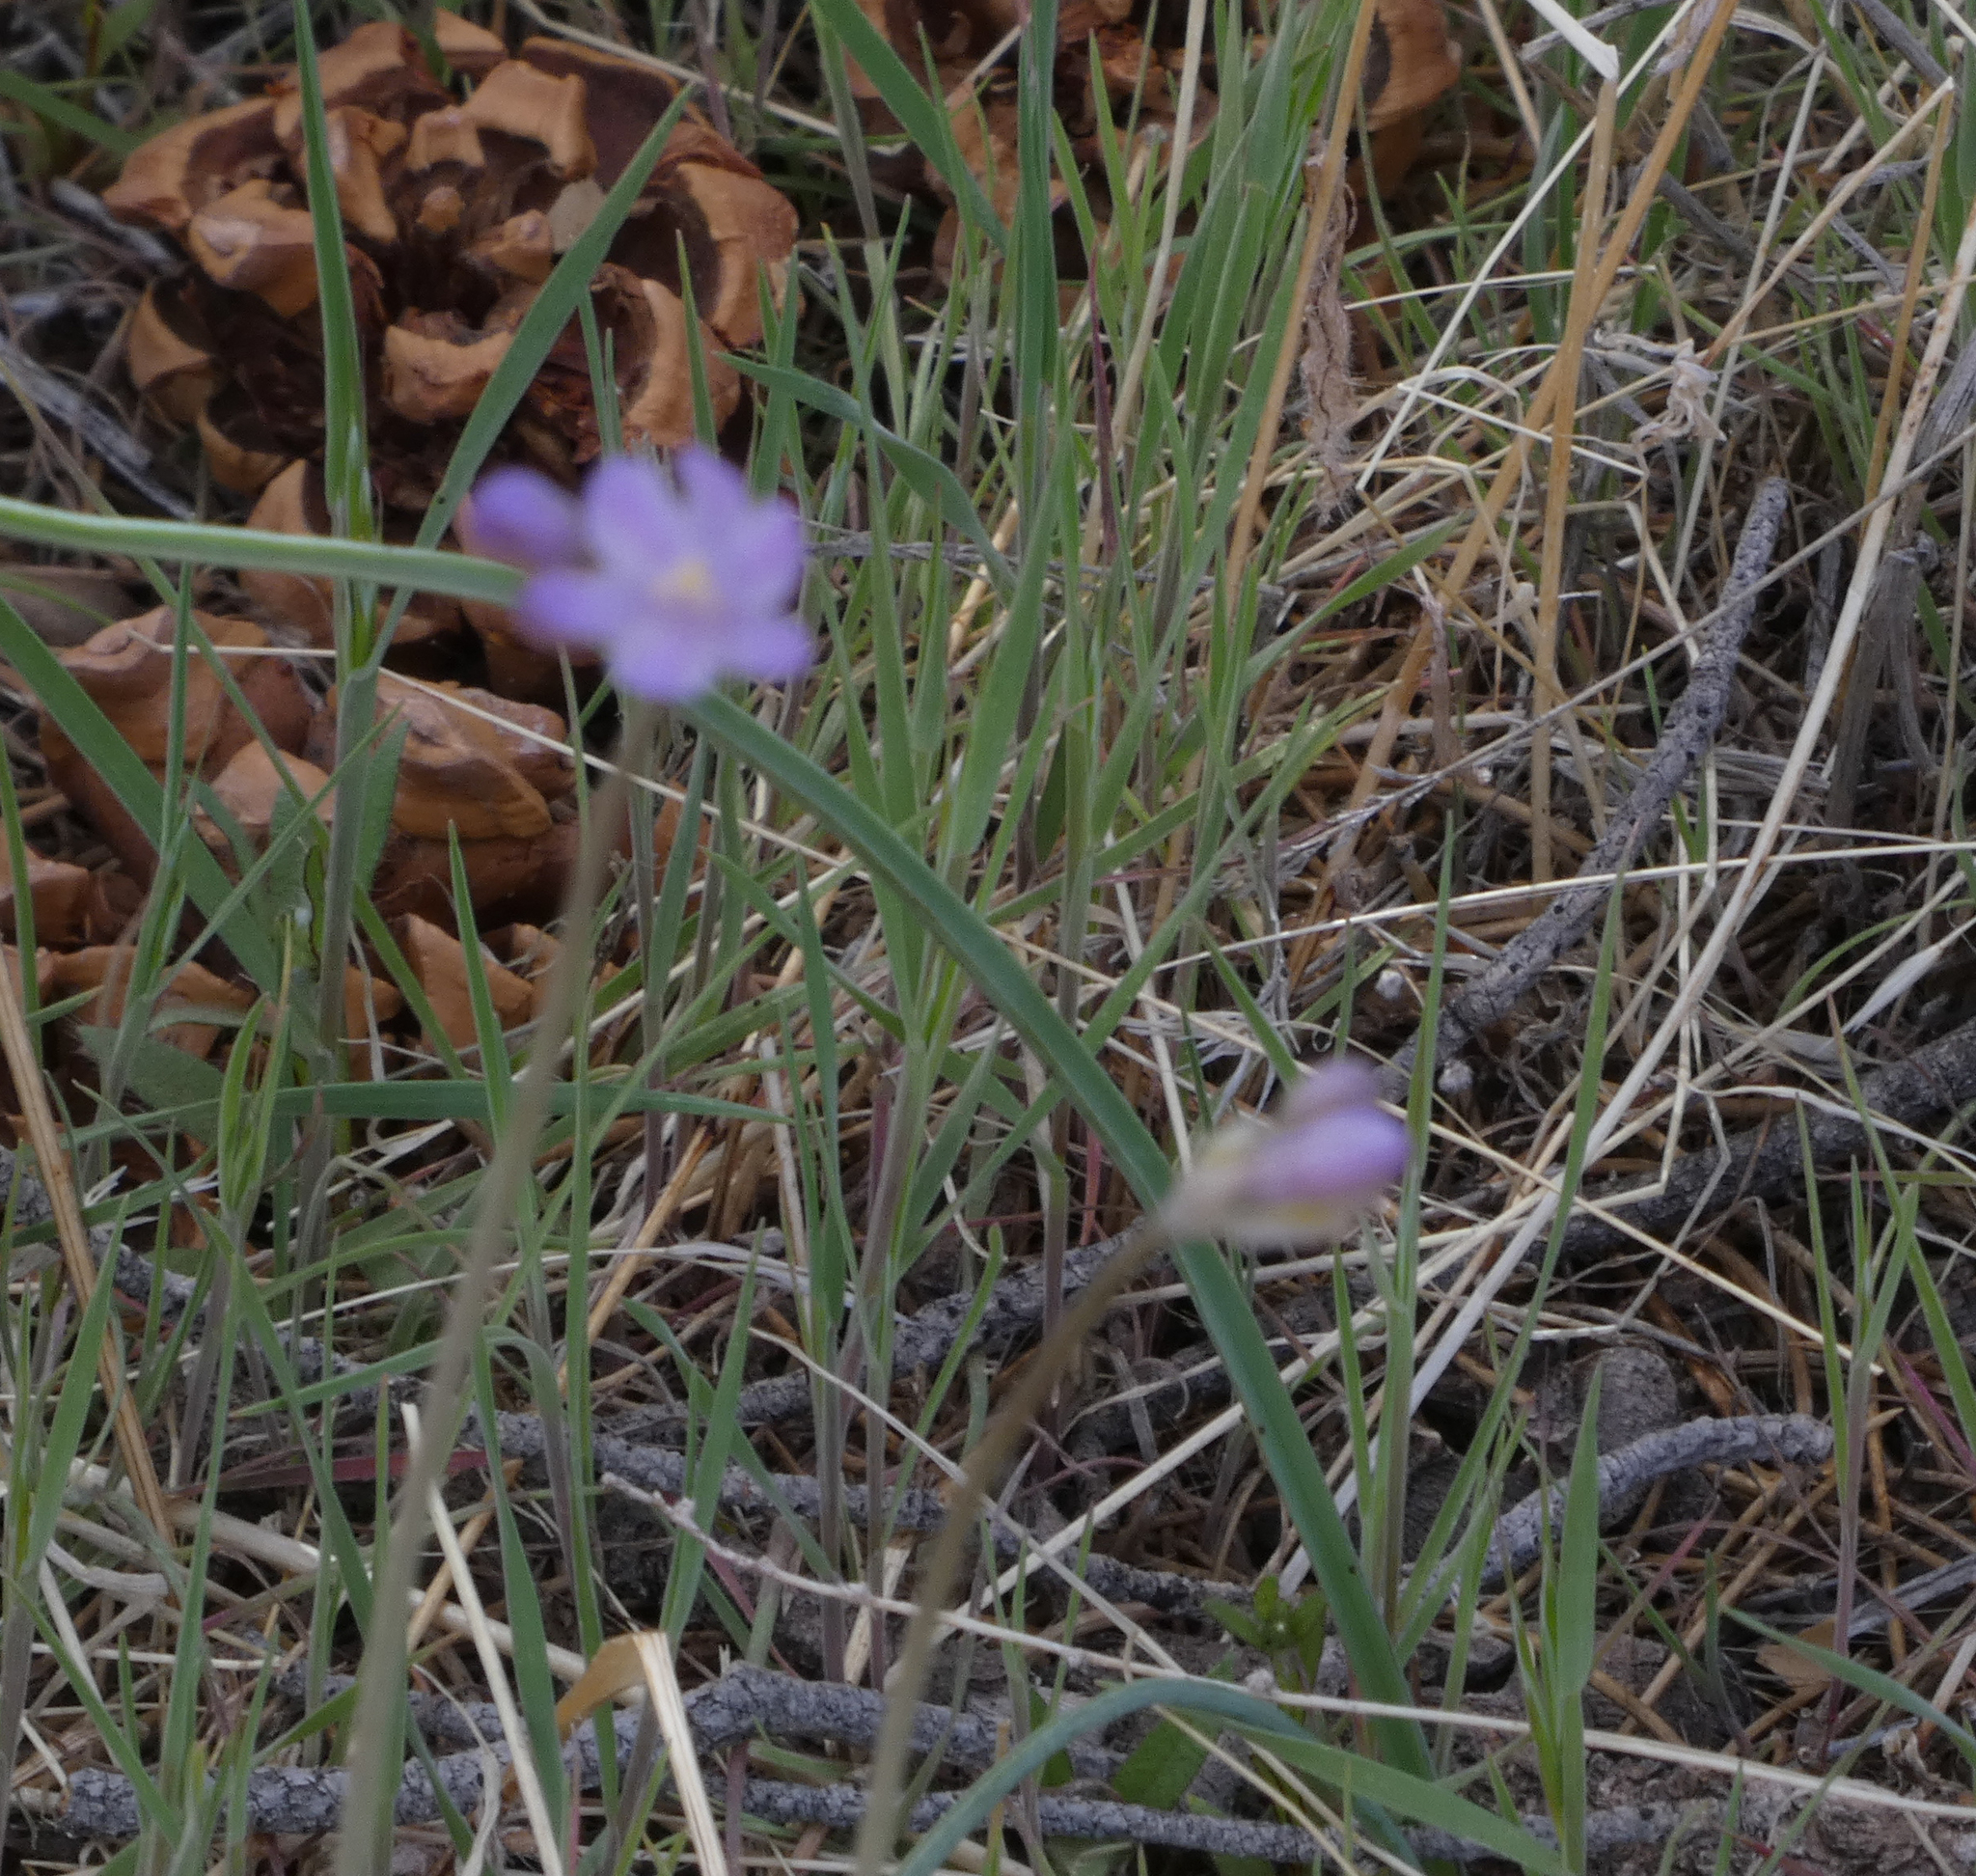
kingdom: Plantae
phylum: Tracheophyta
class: Liliopsida
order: Asparagales
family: Asparagaceae
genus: Dipterostemon
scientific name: Dipterostemon capitatus
